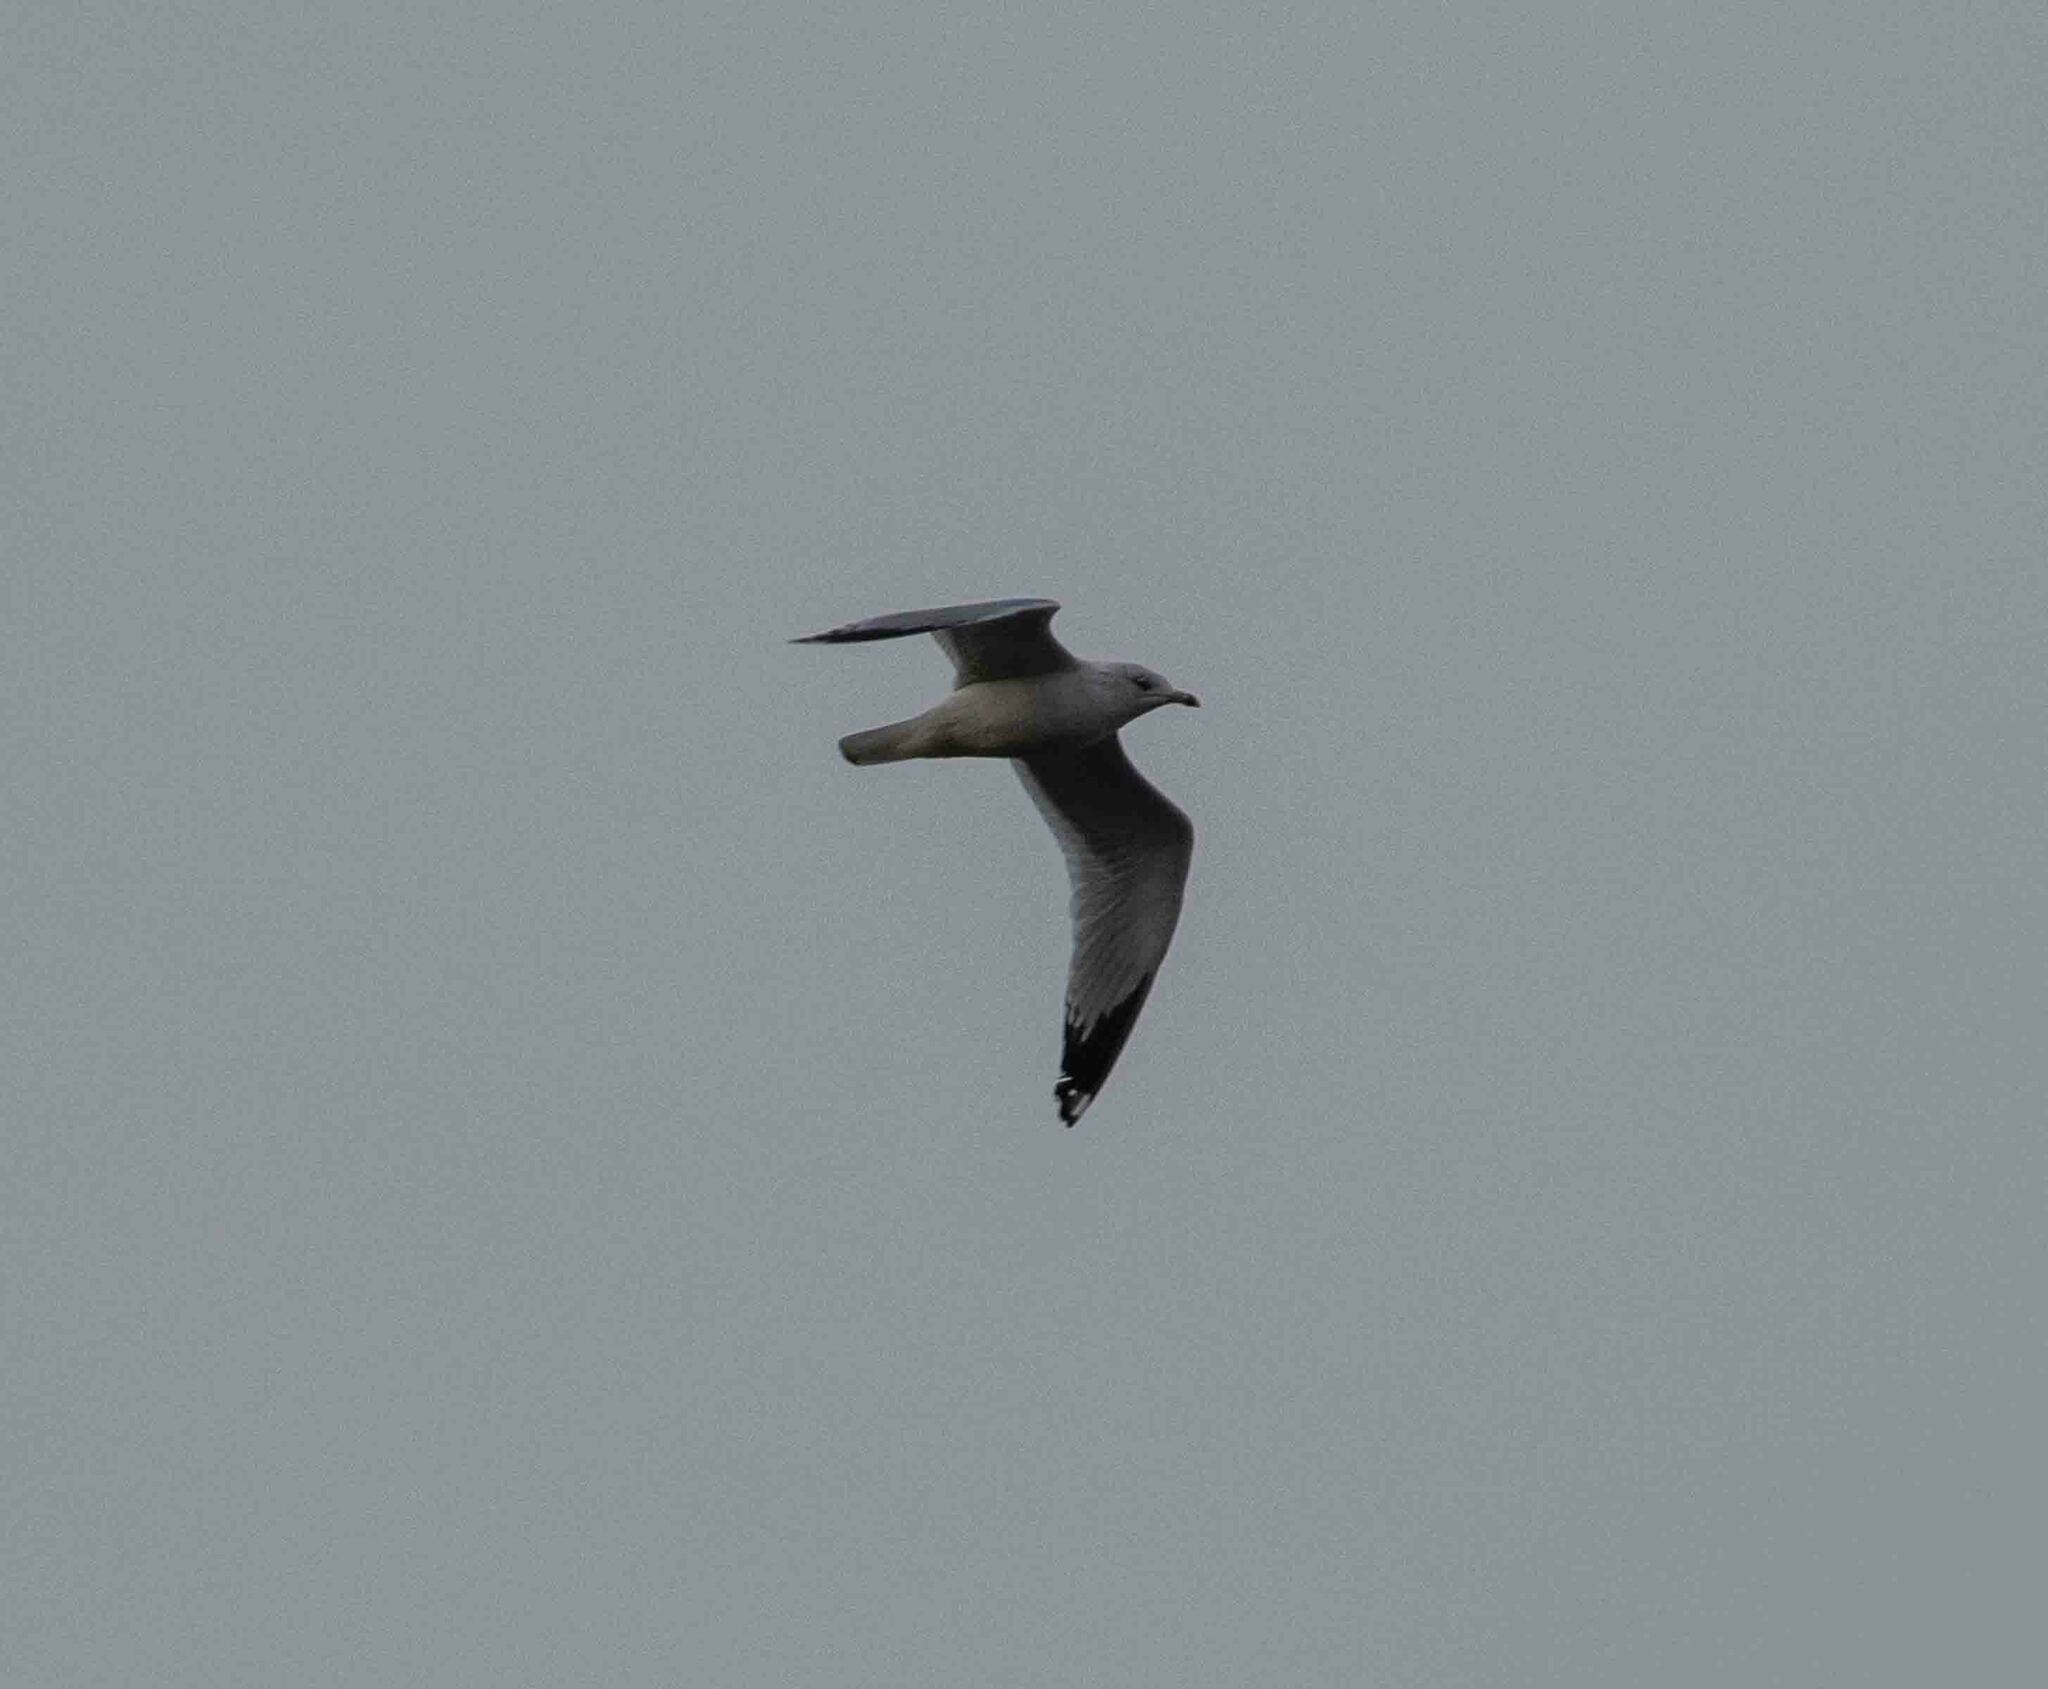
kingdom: Animalia
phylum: Chordata
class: Aves
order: Charadriiformes
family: Laridae
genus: Larus
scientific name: Larus delawarensis
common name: Ring-billed gull
